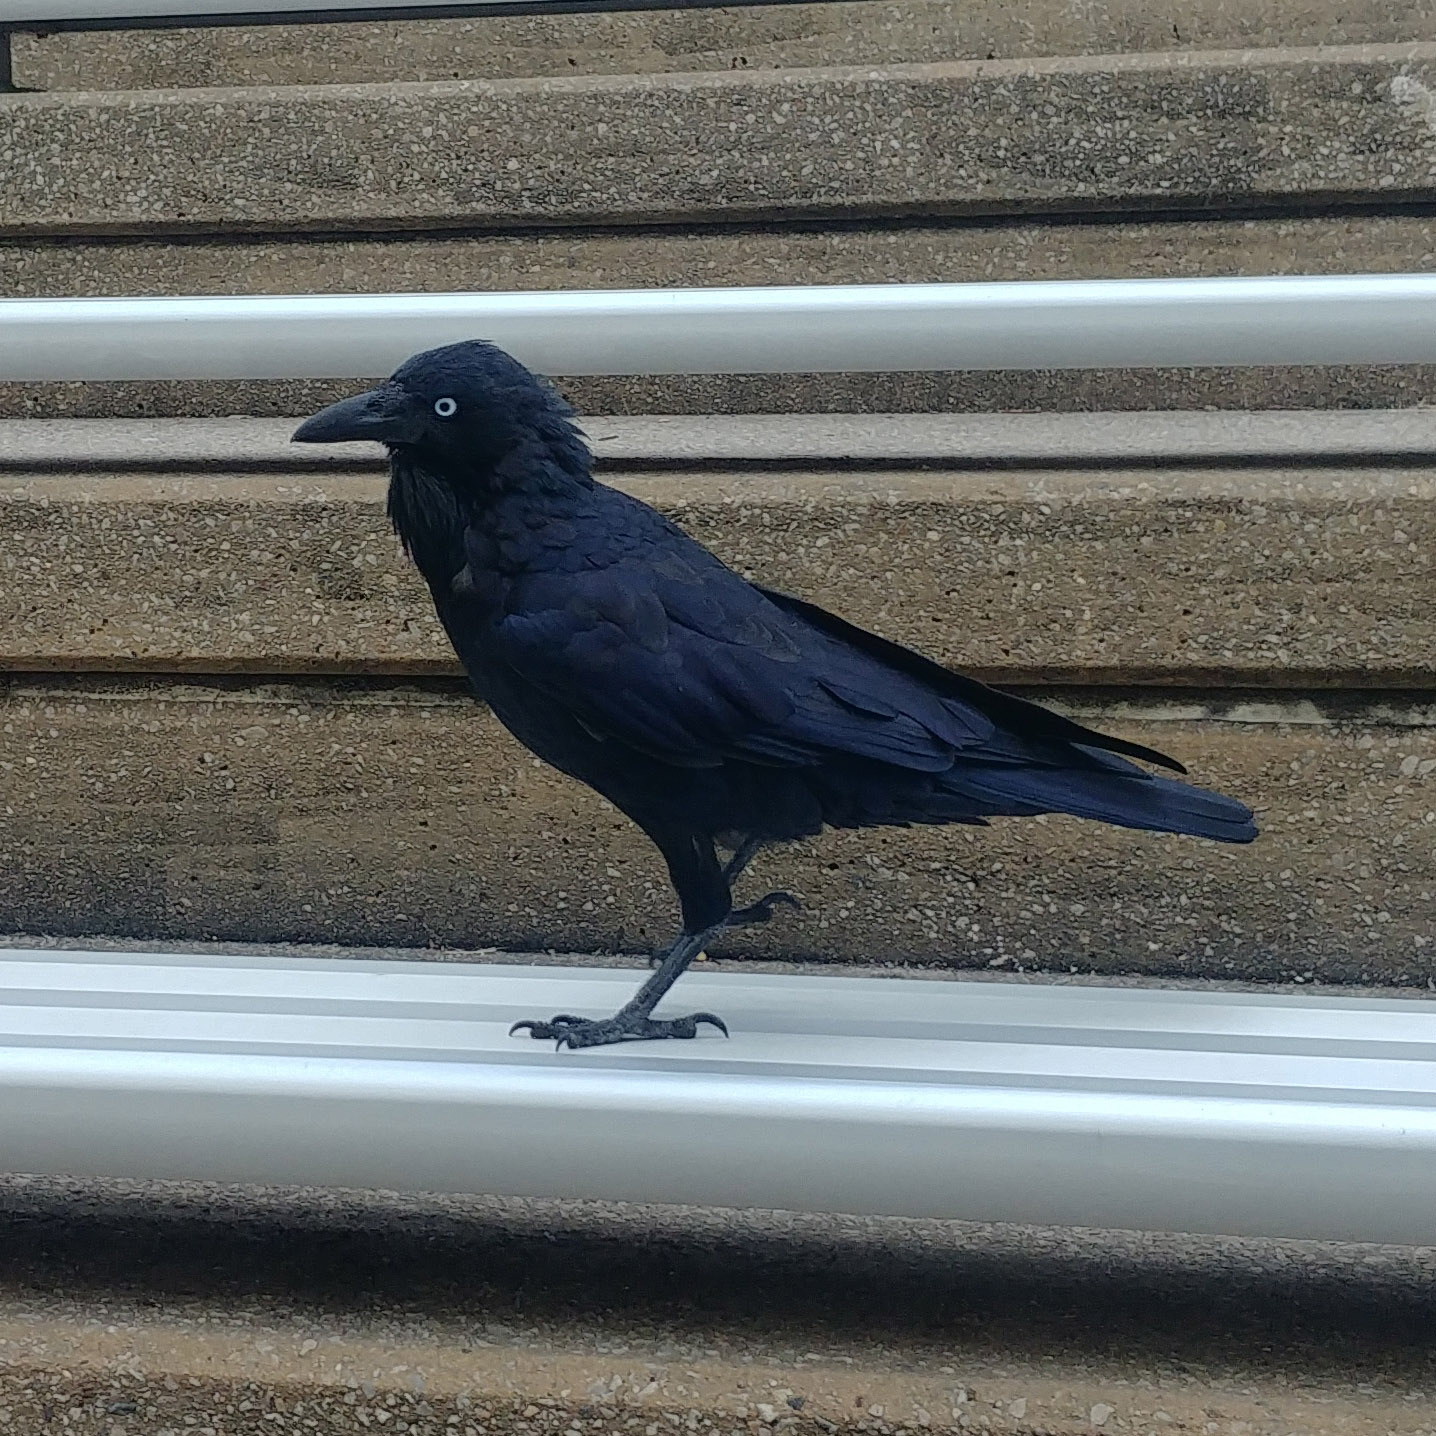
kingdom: Animalia
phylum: Chordata
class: Aves
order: Passeriformes
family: Corvidae
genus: Corvus
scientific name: Corvus coronoides
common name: Australian raven
